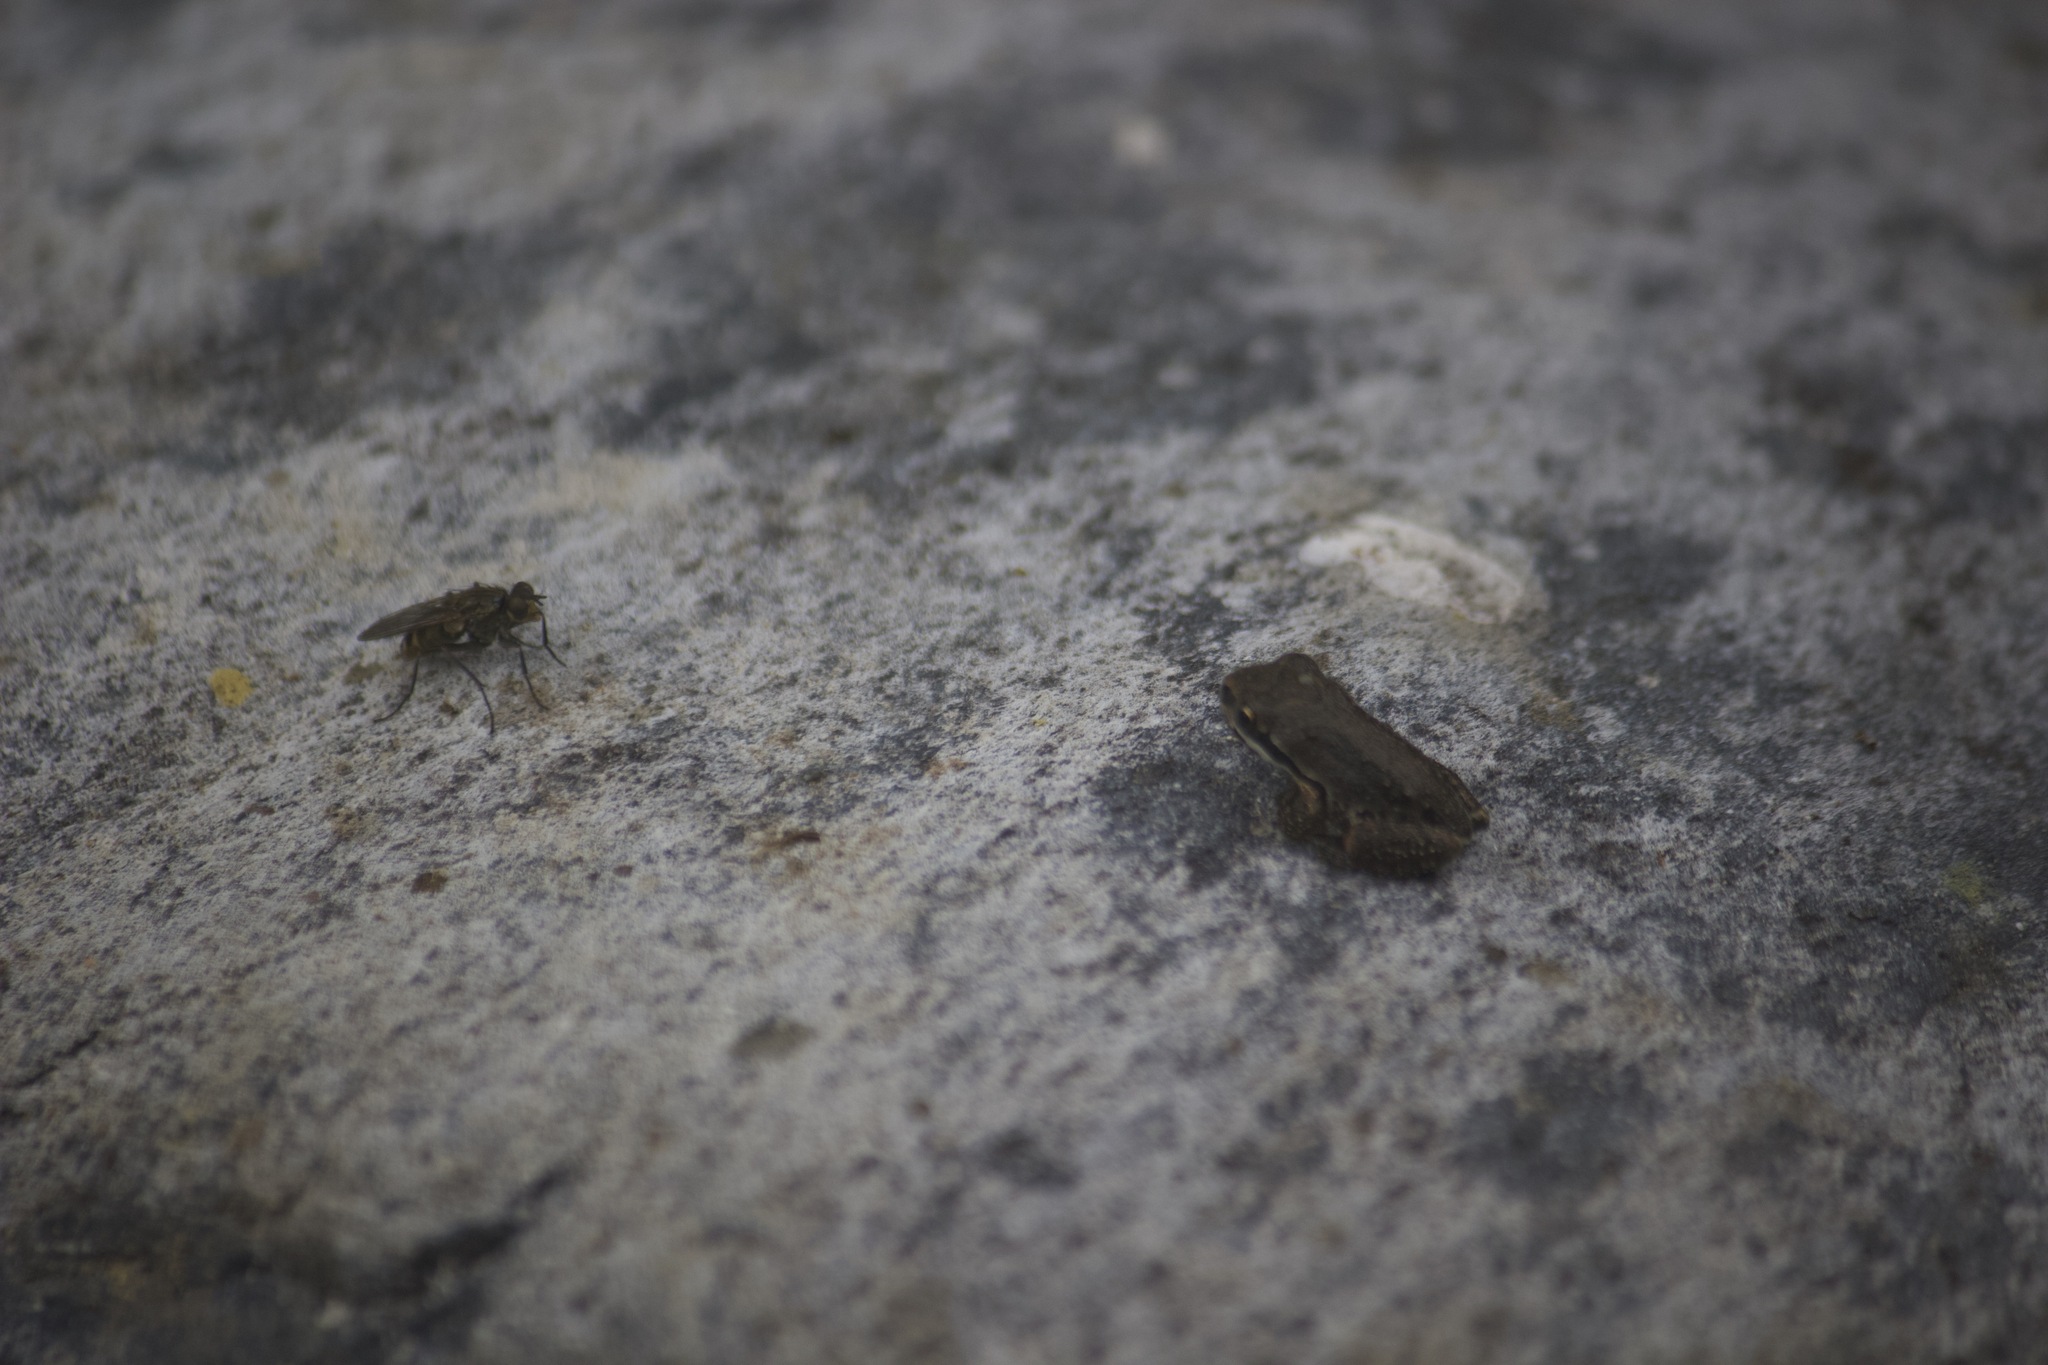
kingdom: Animalia
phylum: Chordata
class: Amphibia
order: Anura
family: Hylidae
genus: Pseudacris
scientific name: Pseudacris regilla
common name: Pacific chorus frog
